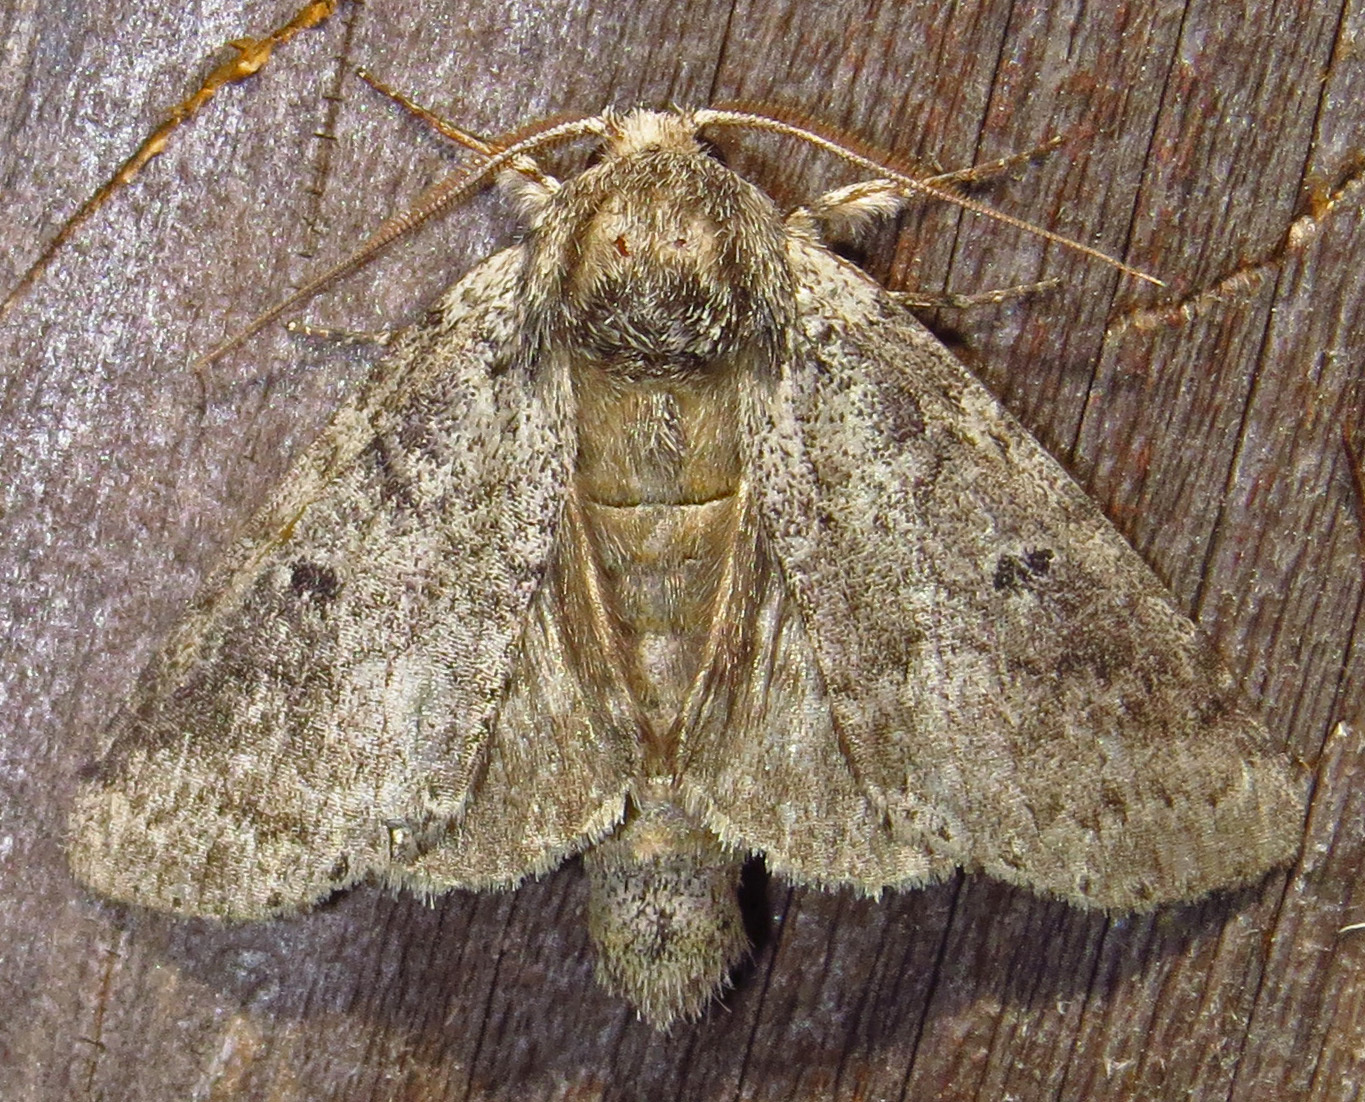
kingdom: Animalia
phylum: Arthropoda
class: Insecta
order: Lepidoptera
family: Notodontidae
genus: Lochmaeus
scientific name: Lochmaeus manteo
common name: Variable oakleaf caterpillar moth
